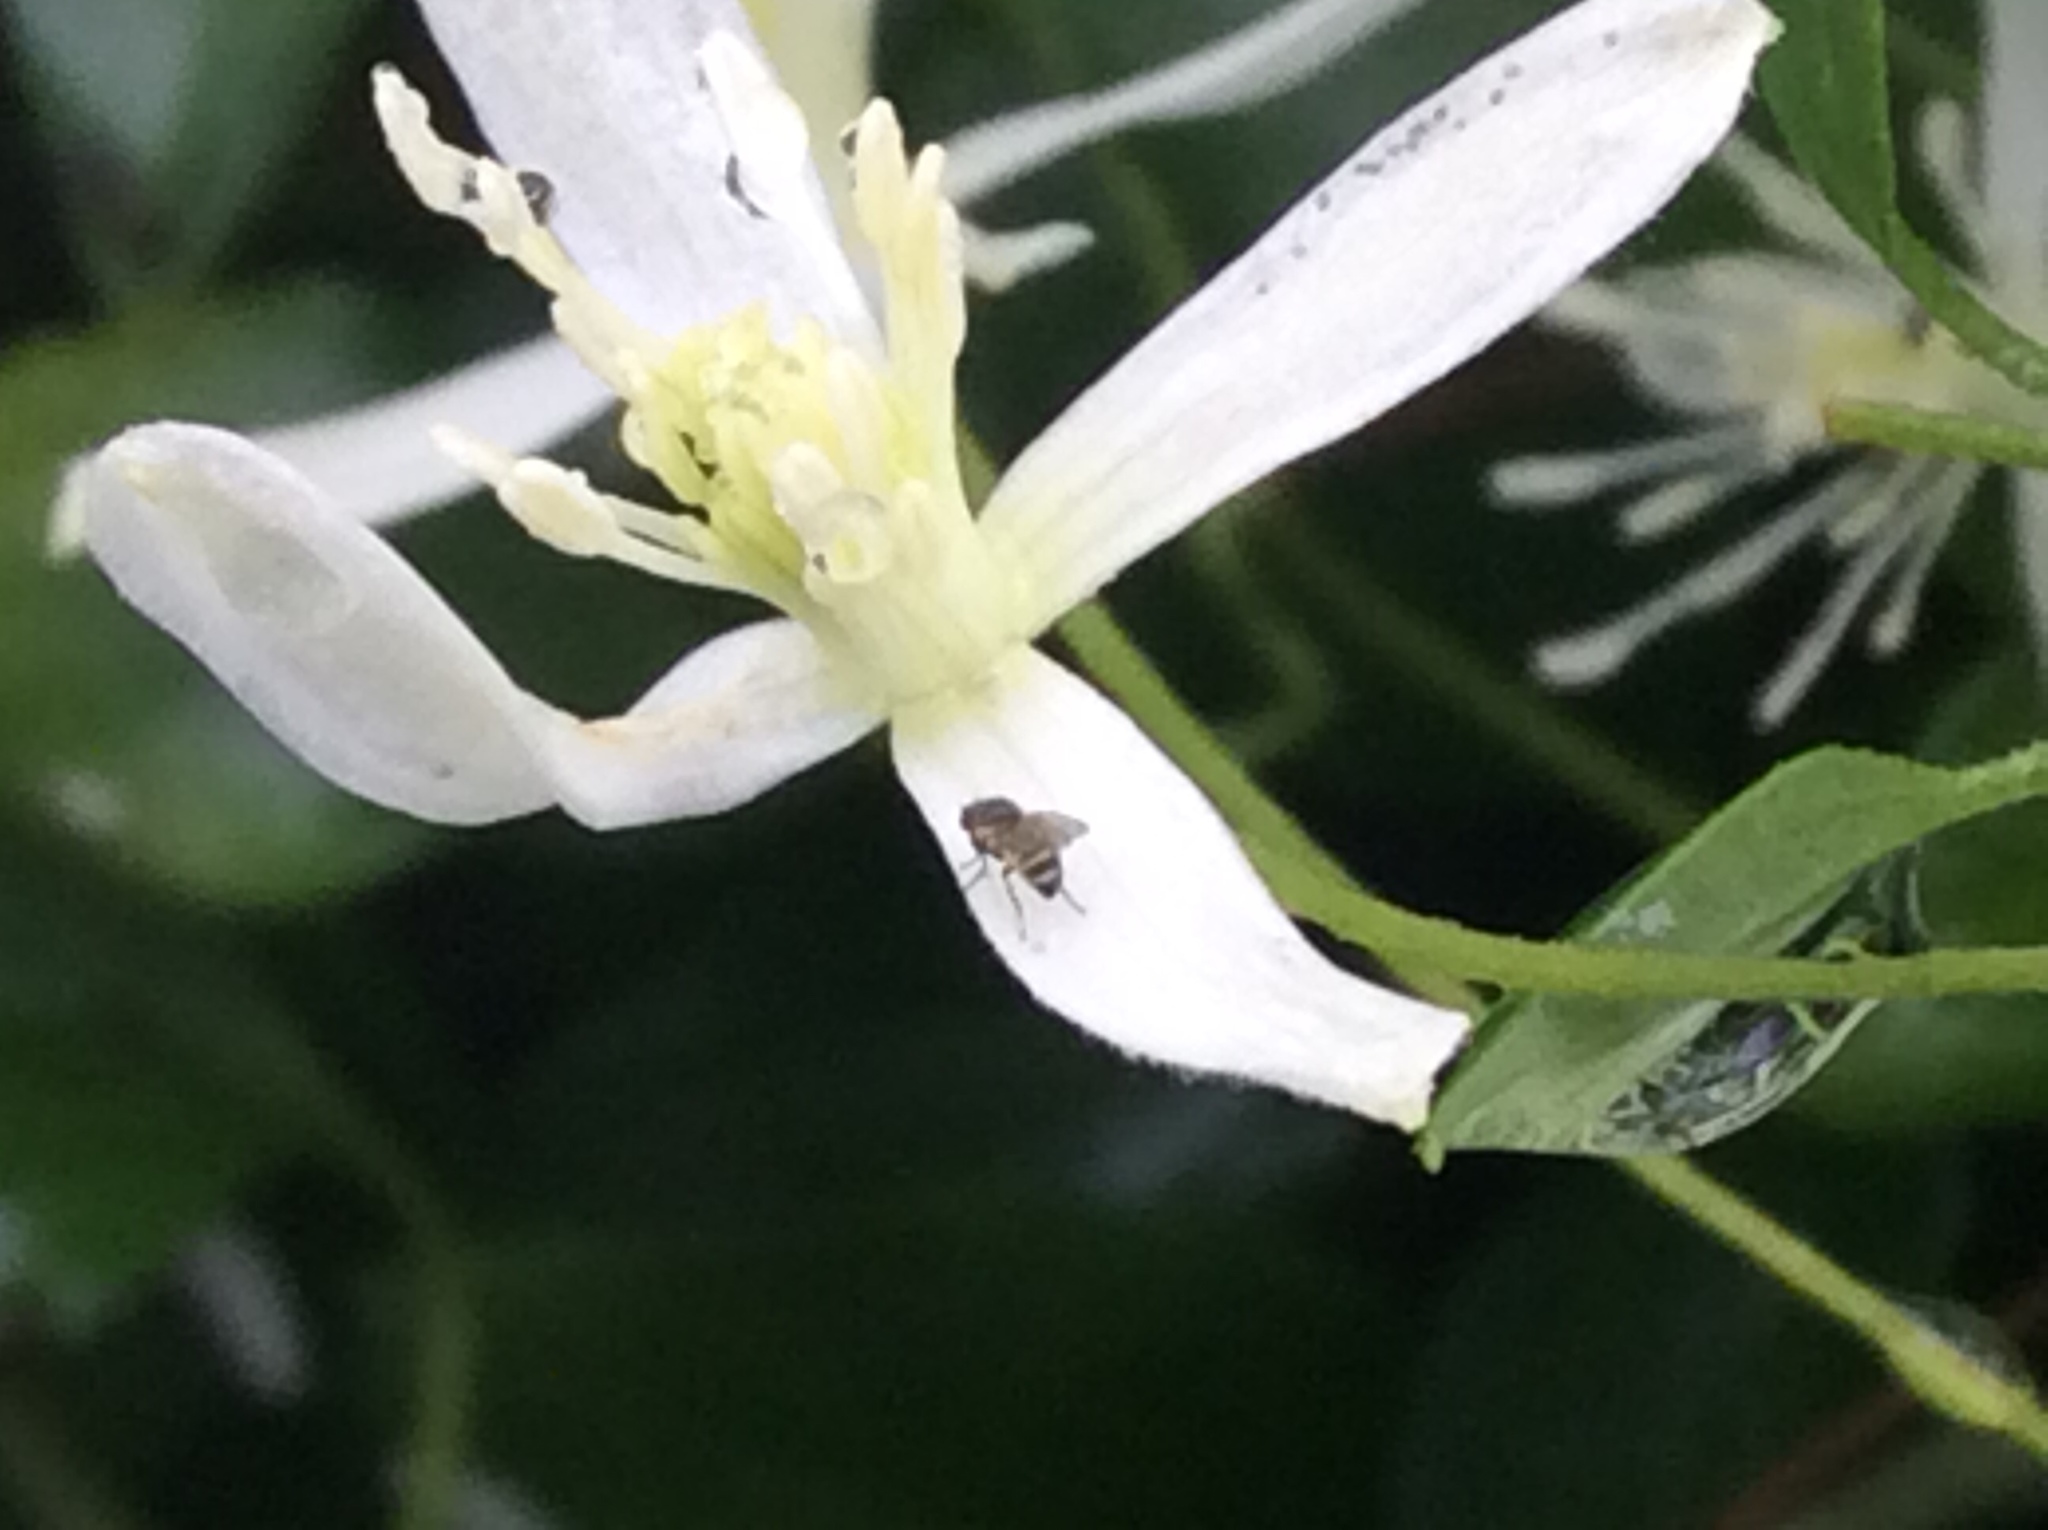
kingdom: Plantae
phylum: Tracheophyta
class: Magnoliopsida
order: Ranunculales
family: Ranunculaceae
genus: Clematis
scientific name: Clematis terniflora
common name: Sweet autumn clematis
